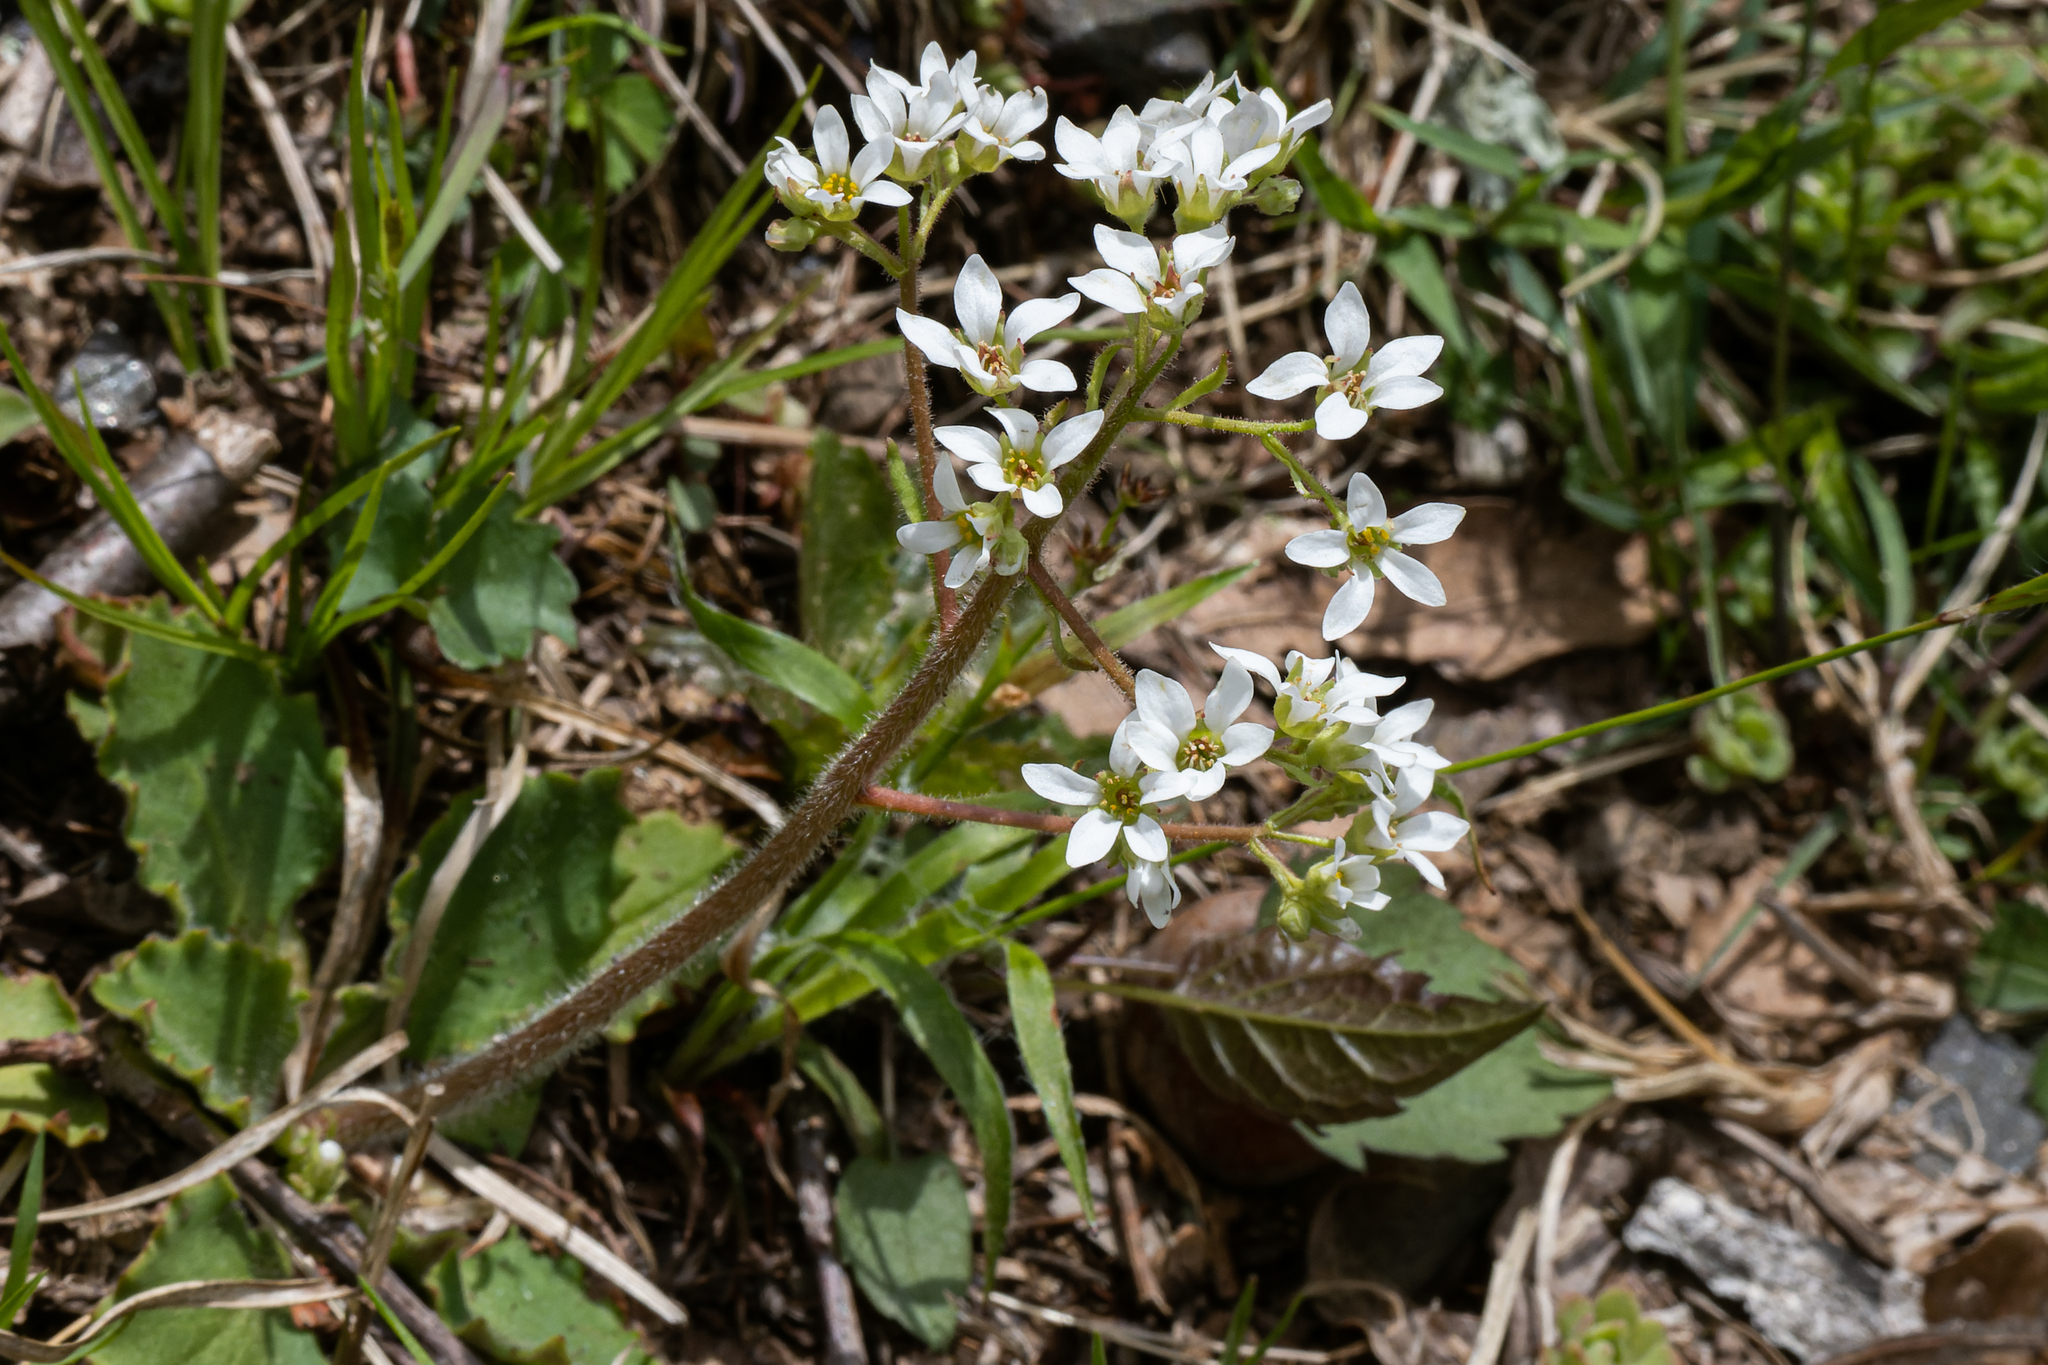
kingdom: Plantae
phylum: Tracheophyta
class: Magnoliopsida
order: Saxifragales
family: Saxifragaceae
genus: Micranthes
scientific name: Micranthes virginiensis
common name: Early saxifrage
